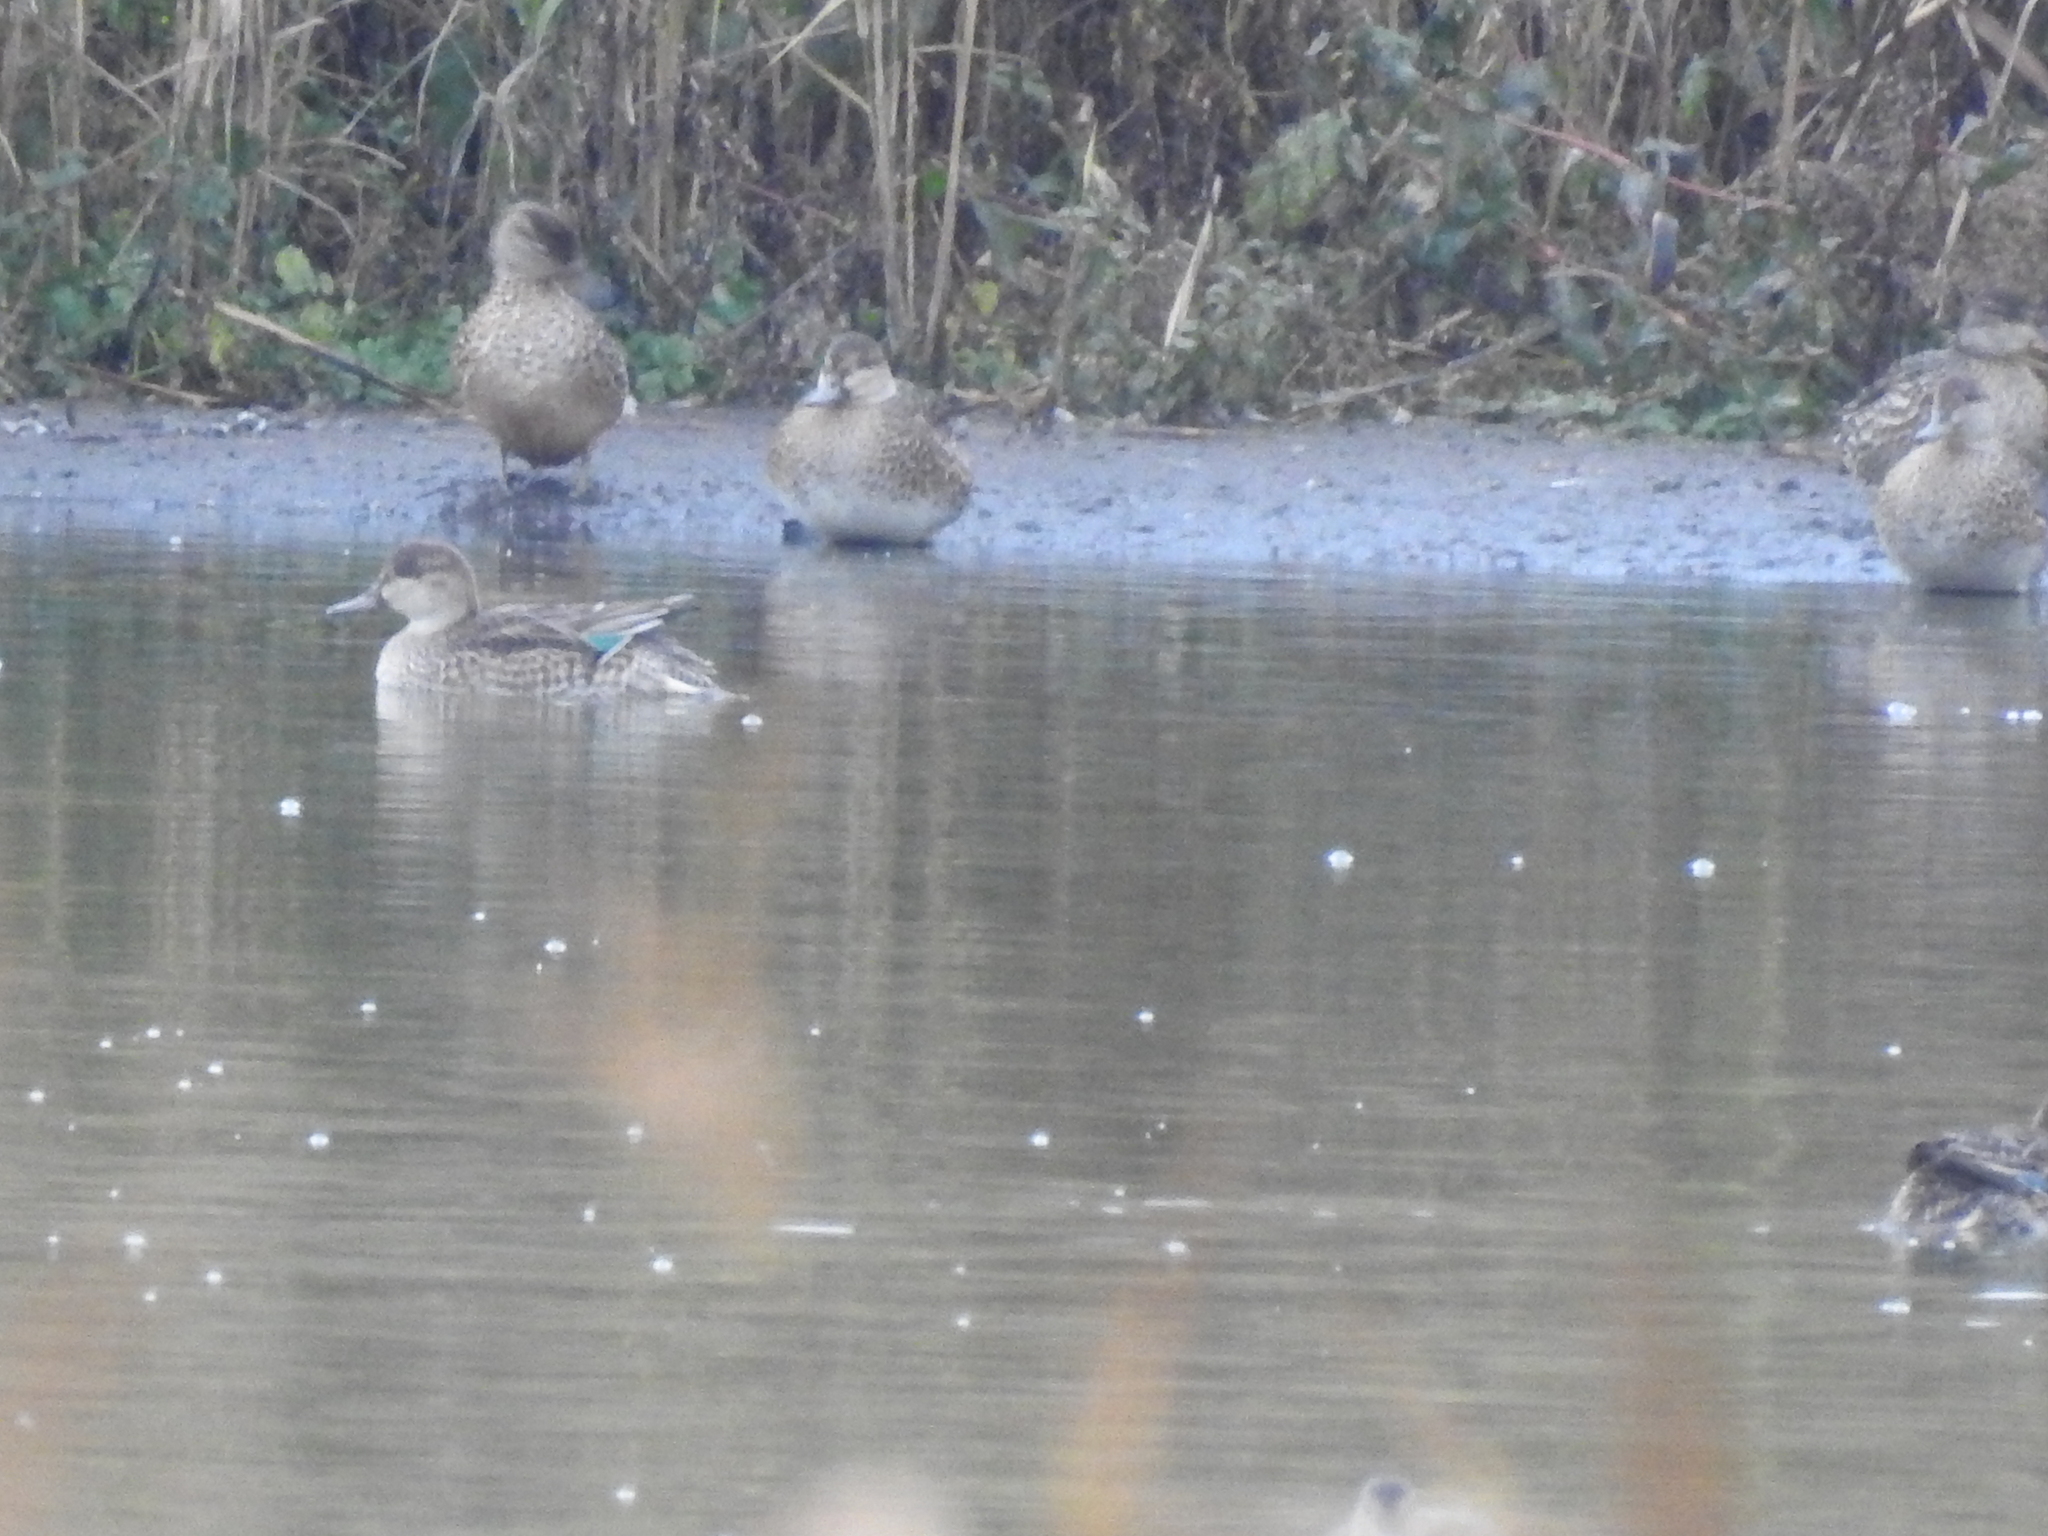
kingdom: Animalia
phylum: Chordata
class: Aves
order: Anseriformes
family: Anatidae
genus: Anas
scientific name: Anas crecca
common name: Eurasian teal
